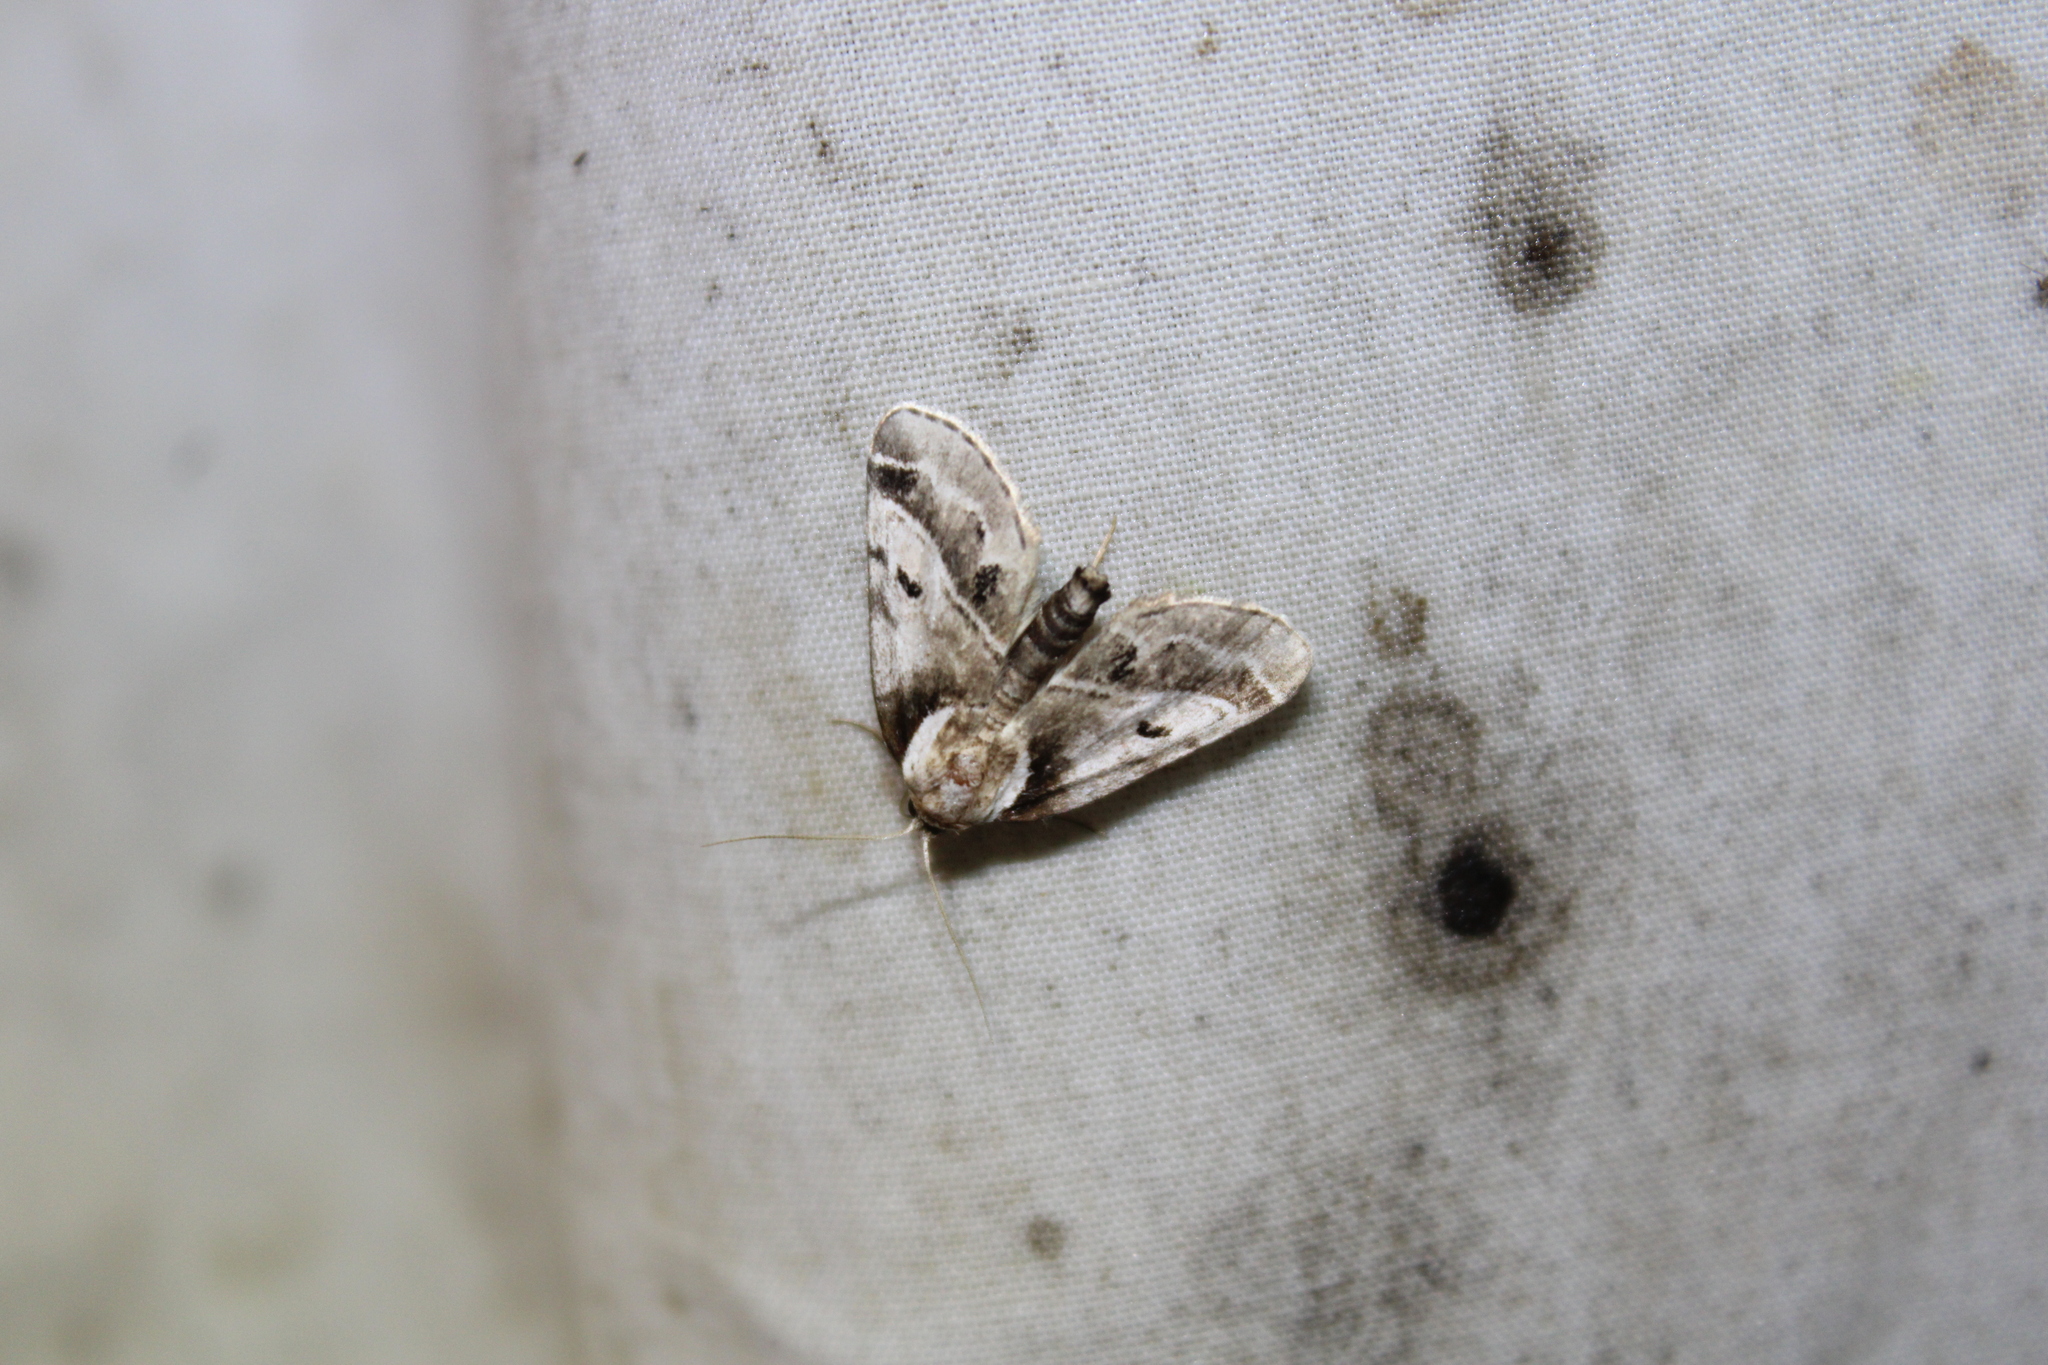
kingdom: Animalia
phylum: Arthropoda
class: Insecta
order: Lepidoptera
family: Nolidae
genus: Baileya
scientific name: Baileya doubledayi
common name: Doubleday's baileya moth
